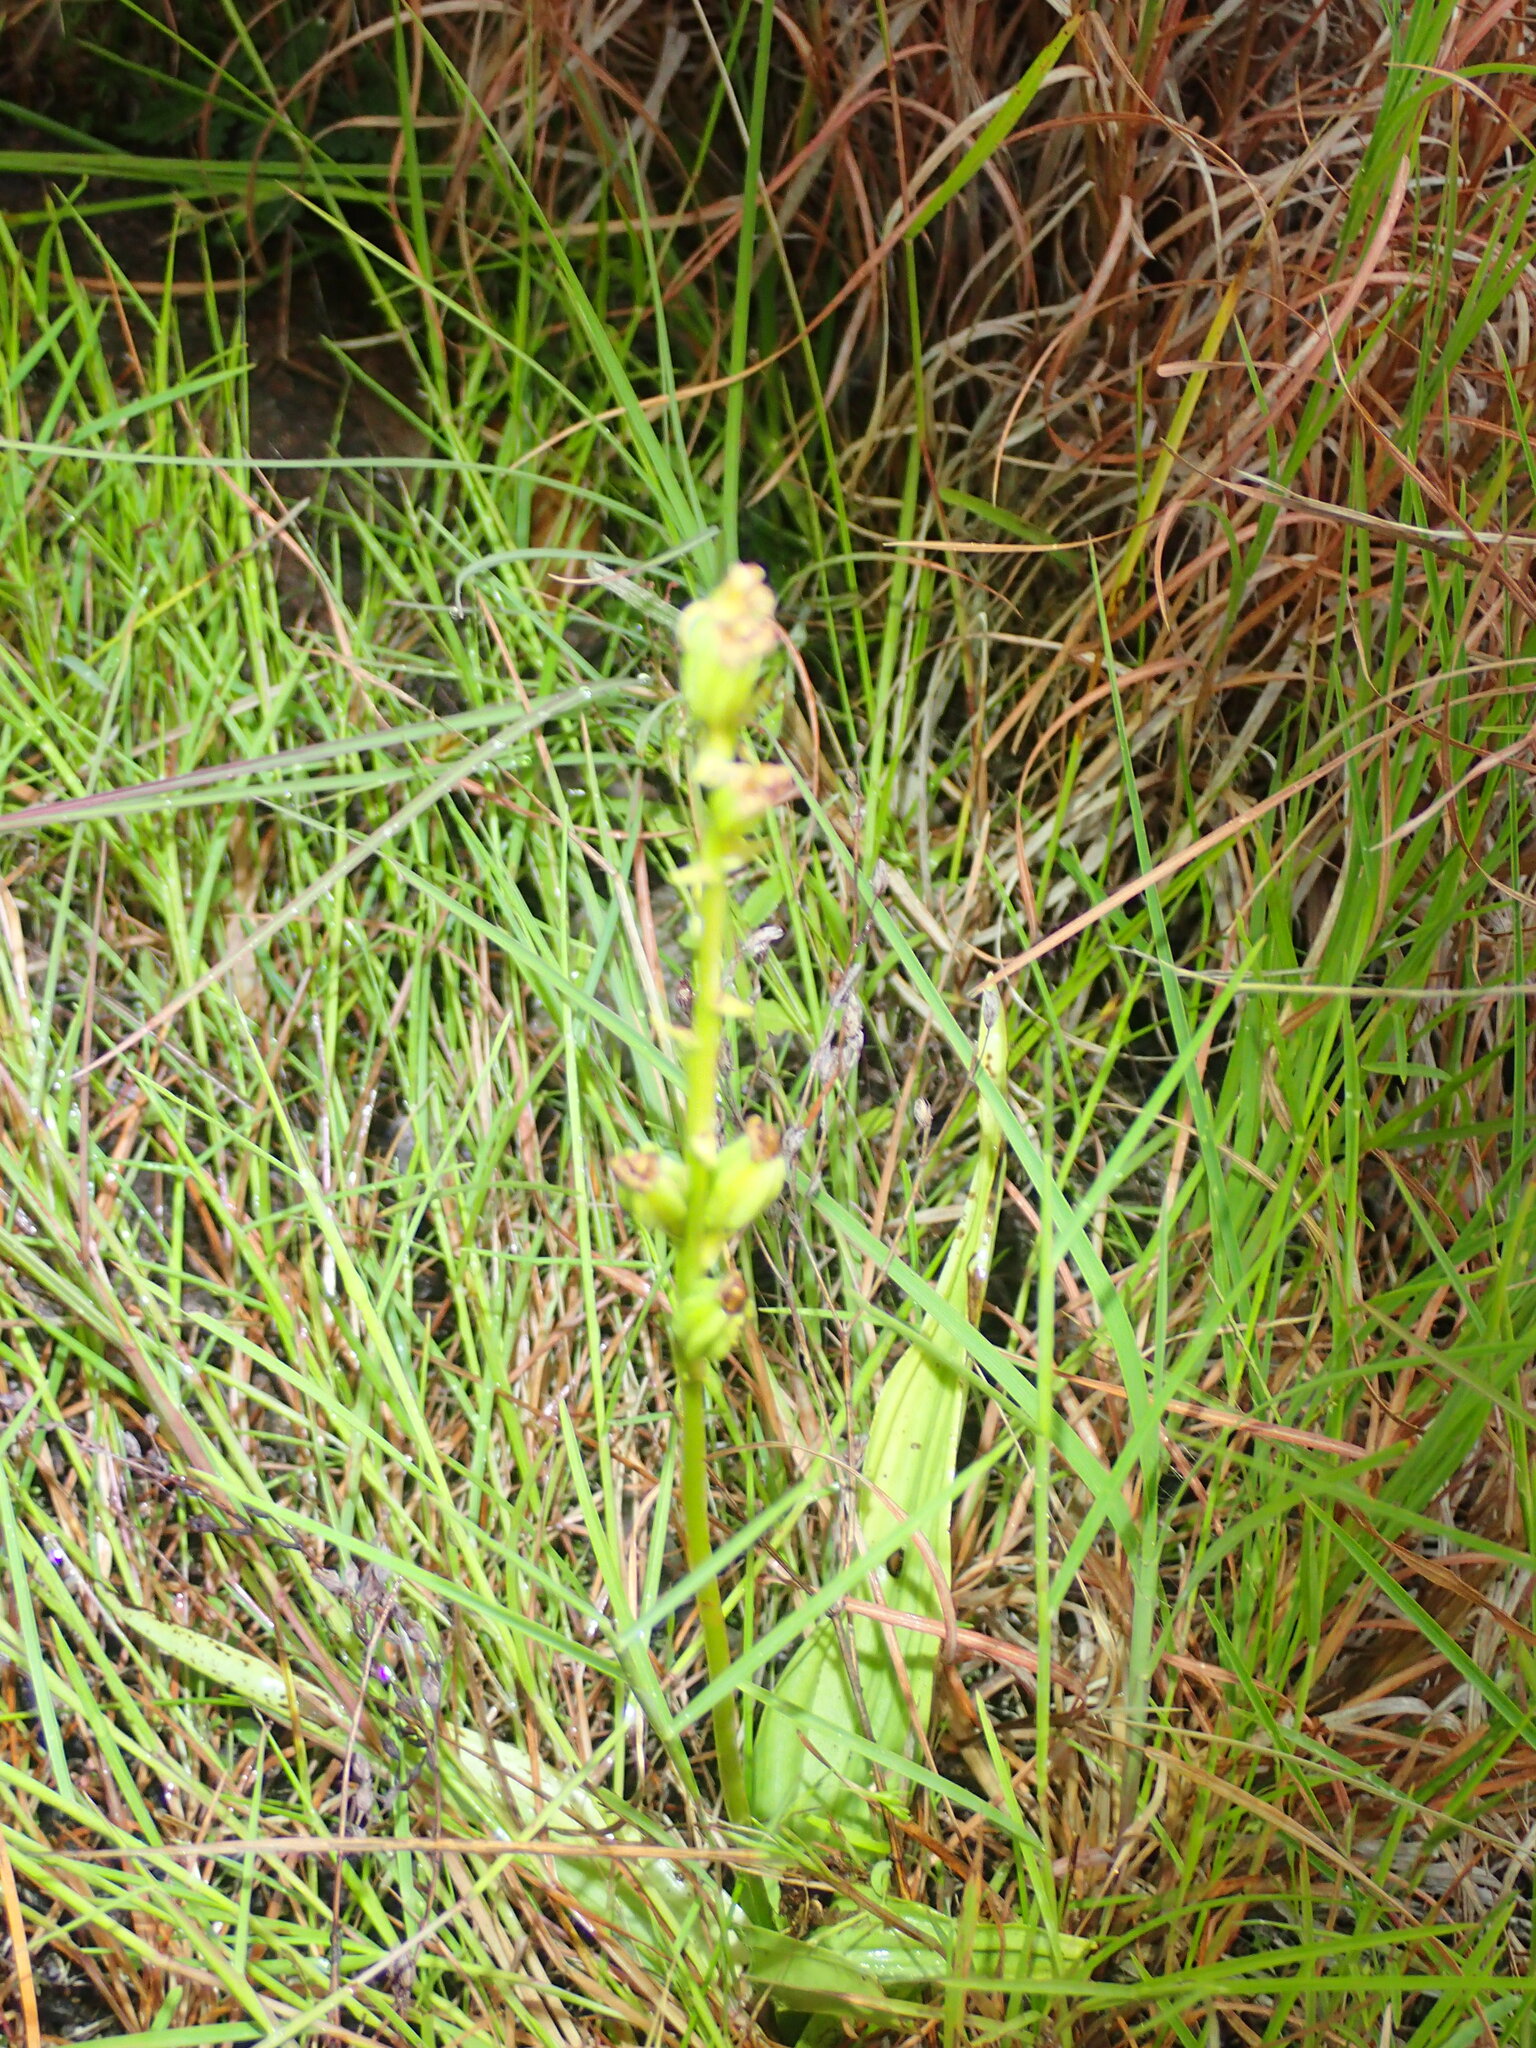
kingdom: Plantae
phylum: Tracheophyta
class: Liliopsida
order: Asparagales
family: Orchidaceae
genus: Liparis
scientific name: Liparis habenarina
